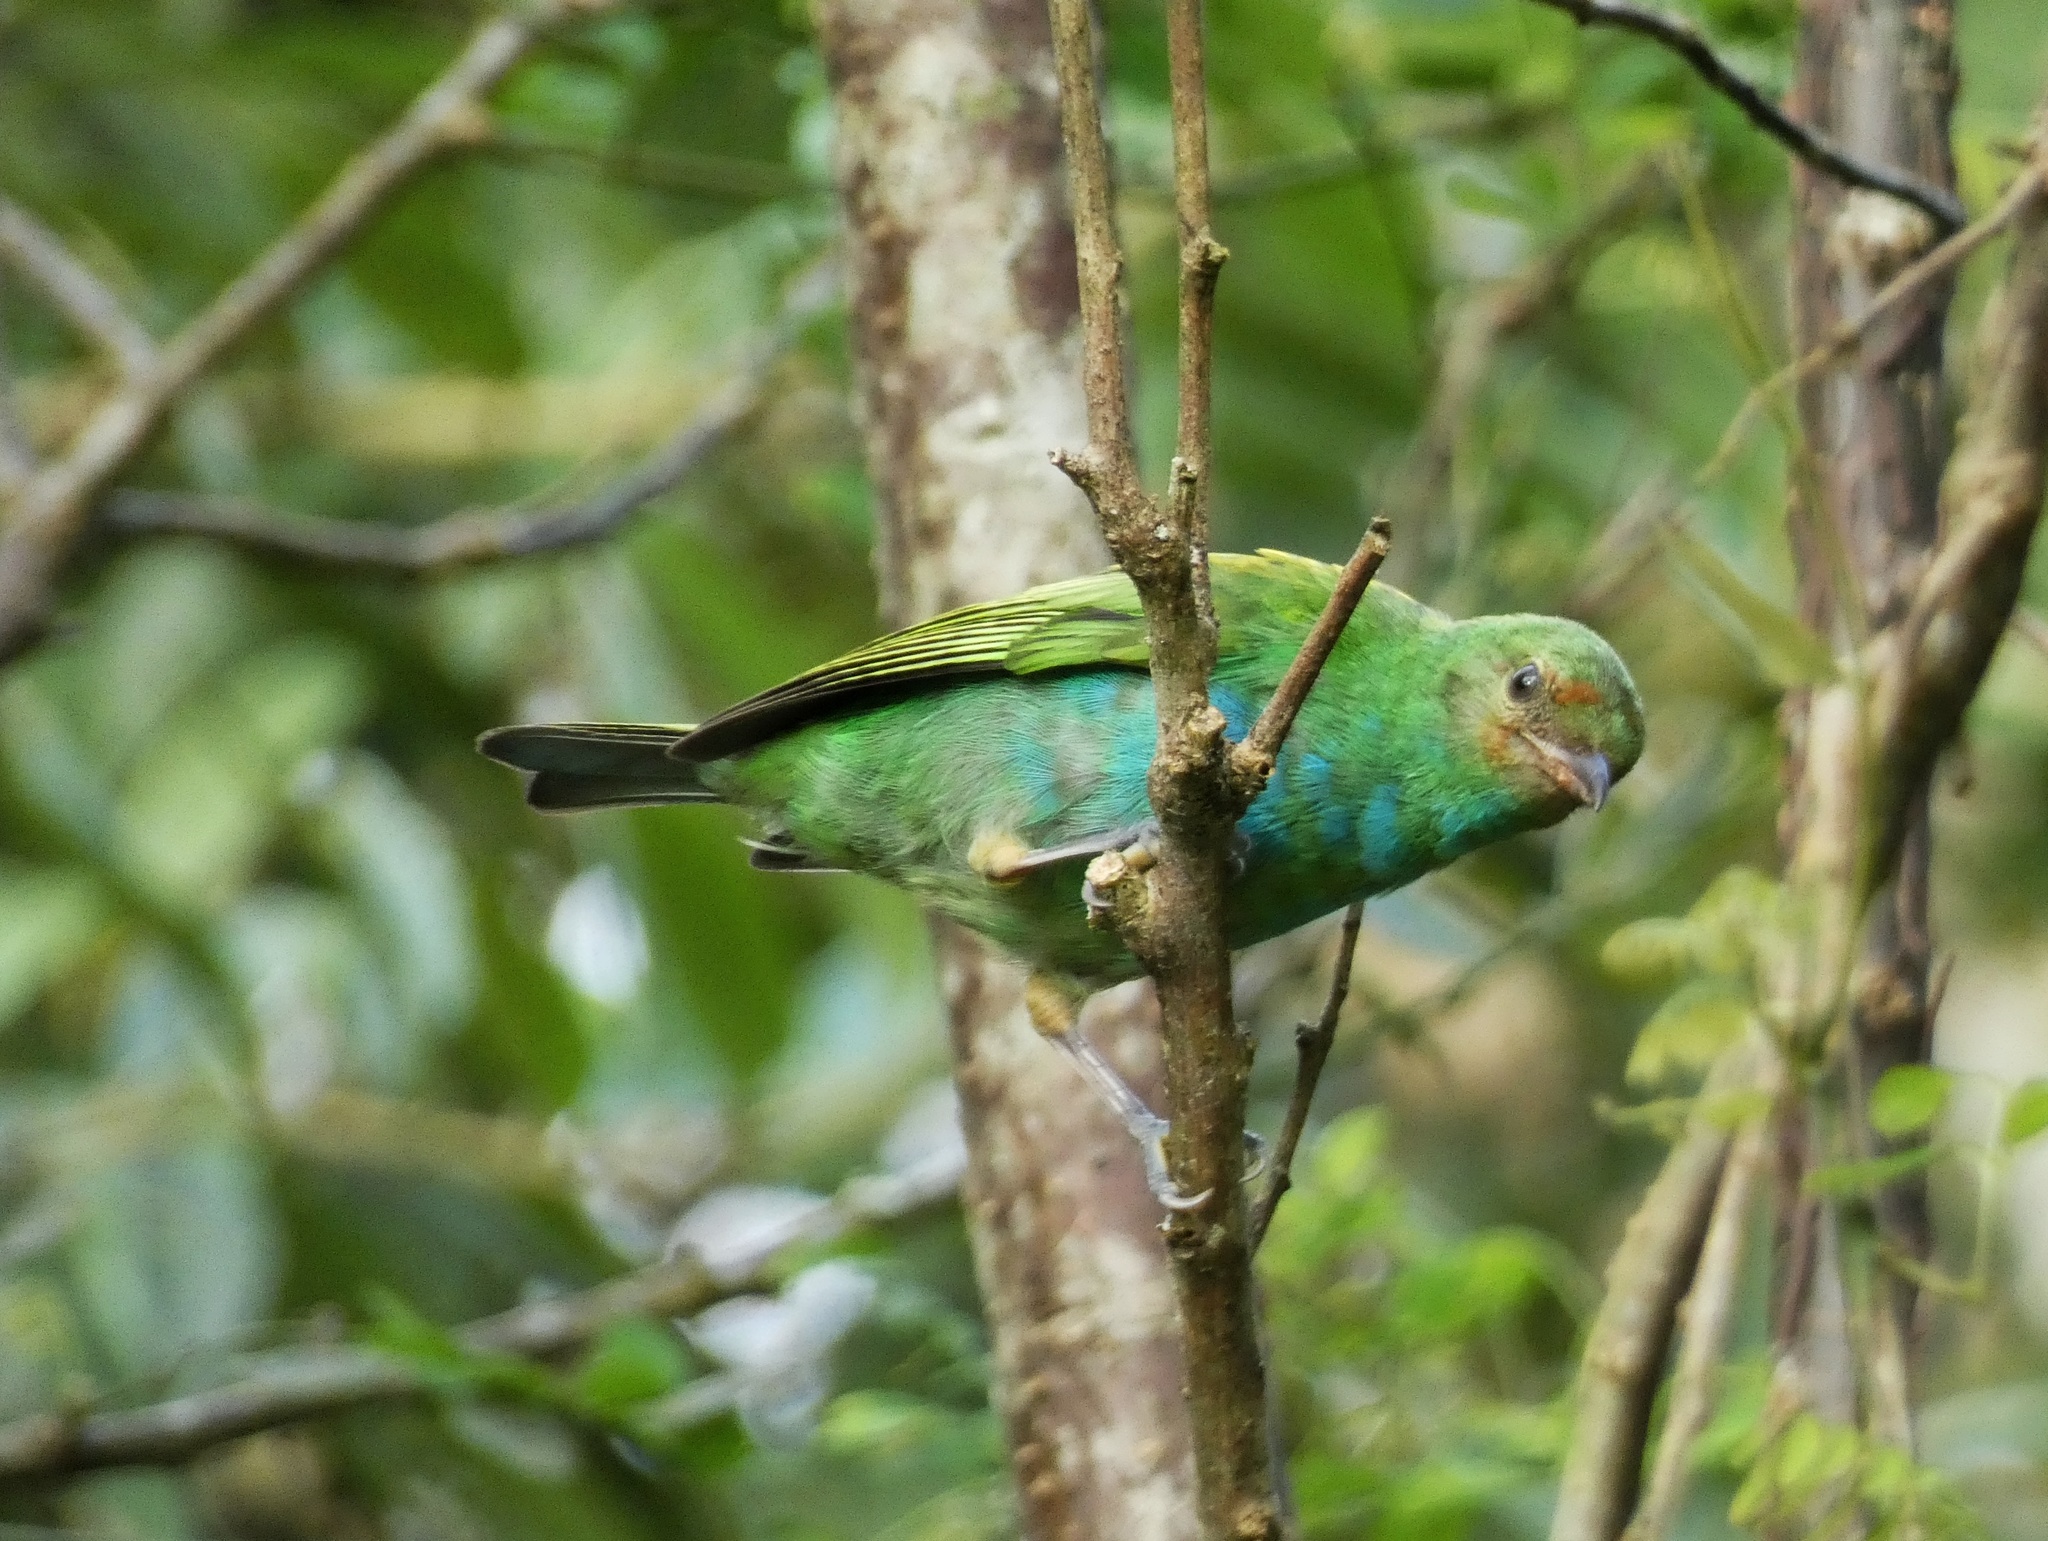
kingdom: Animalia
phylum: Chordata
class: Aves
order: Passeriformes
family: Thraupidae
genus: Tangara
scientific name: Tangara gyrola
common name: Bay-headed tanager
